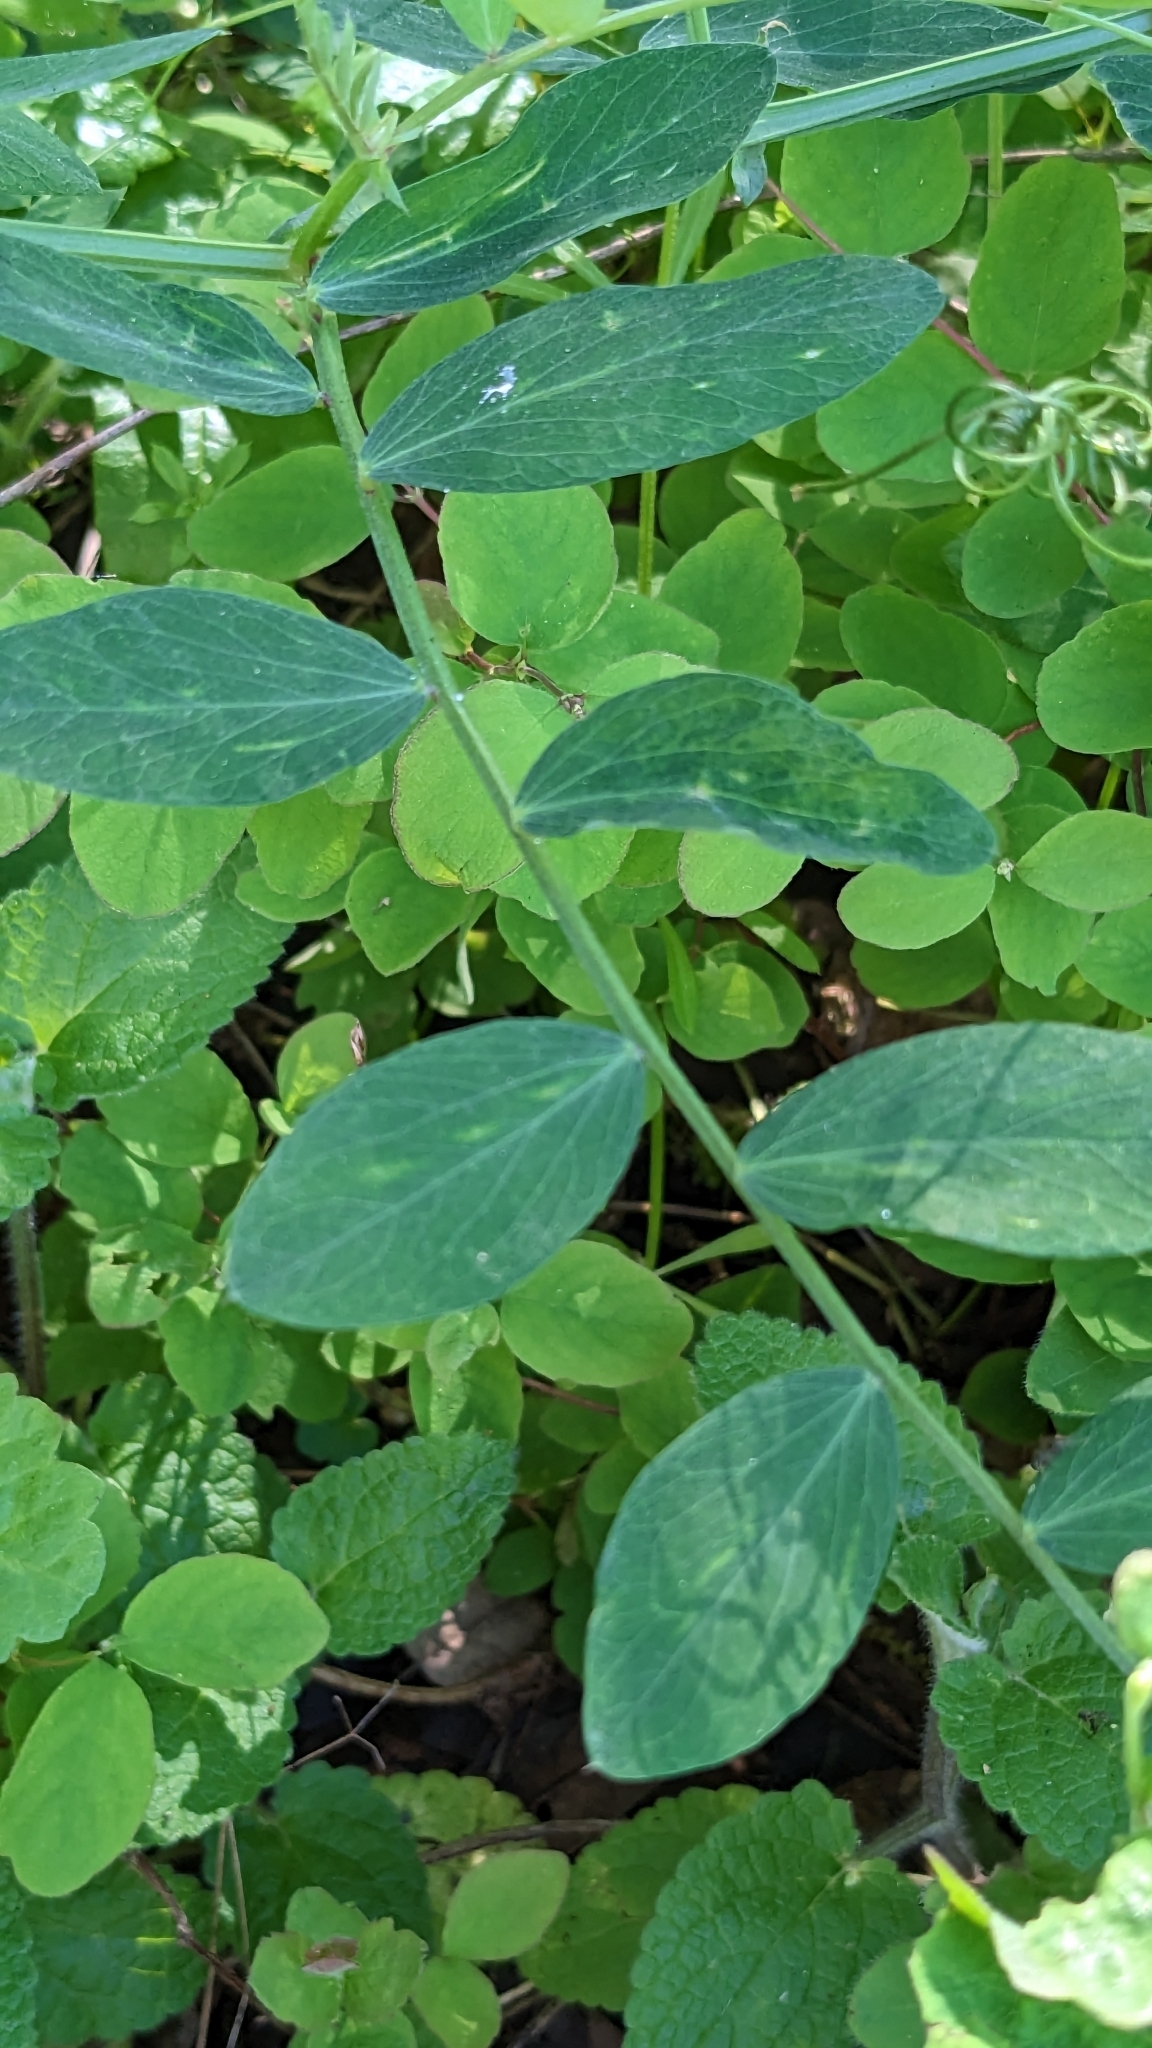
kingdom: Plantae
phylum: Tracheophyta
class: Magnoliopsida
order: Fabales
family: Fabaceae
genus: Lathyrus
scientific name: Lathyrus vestitus
